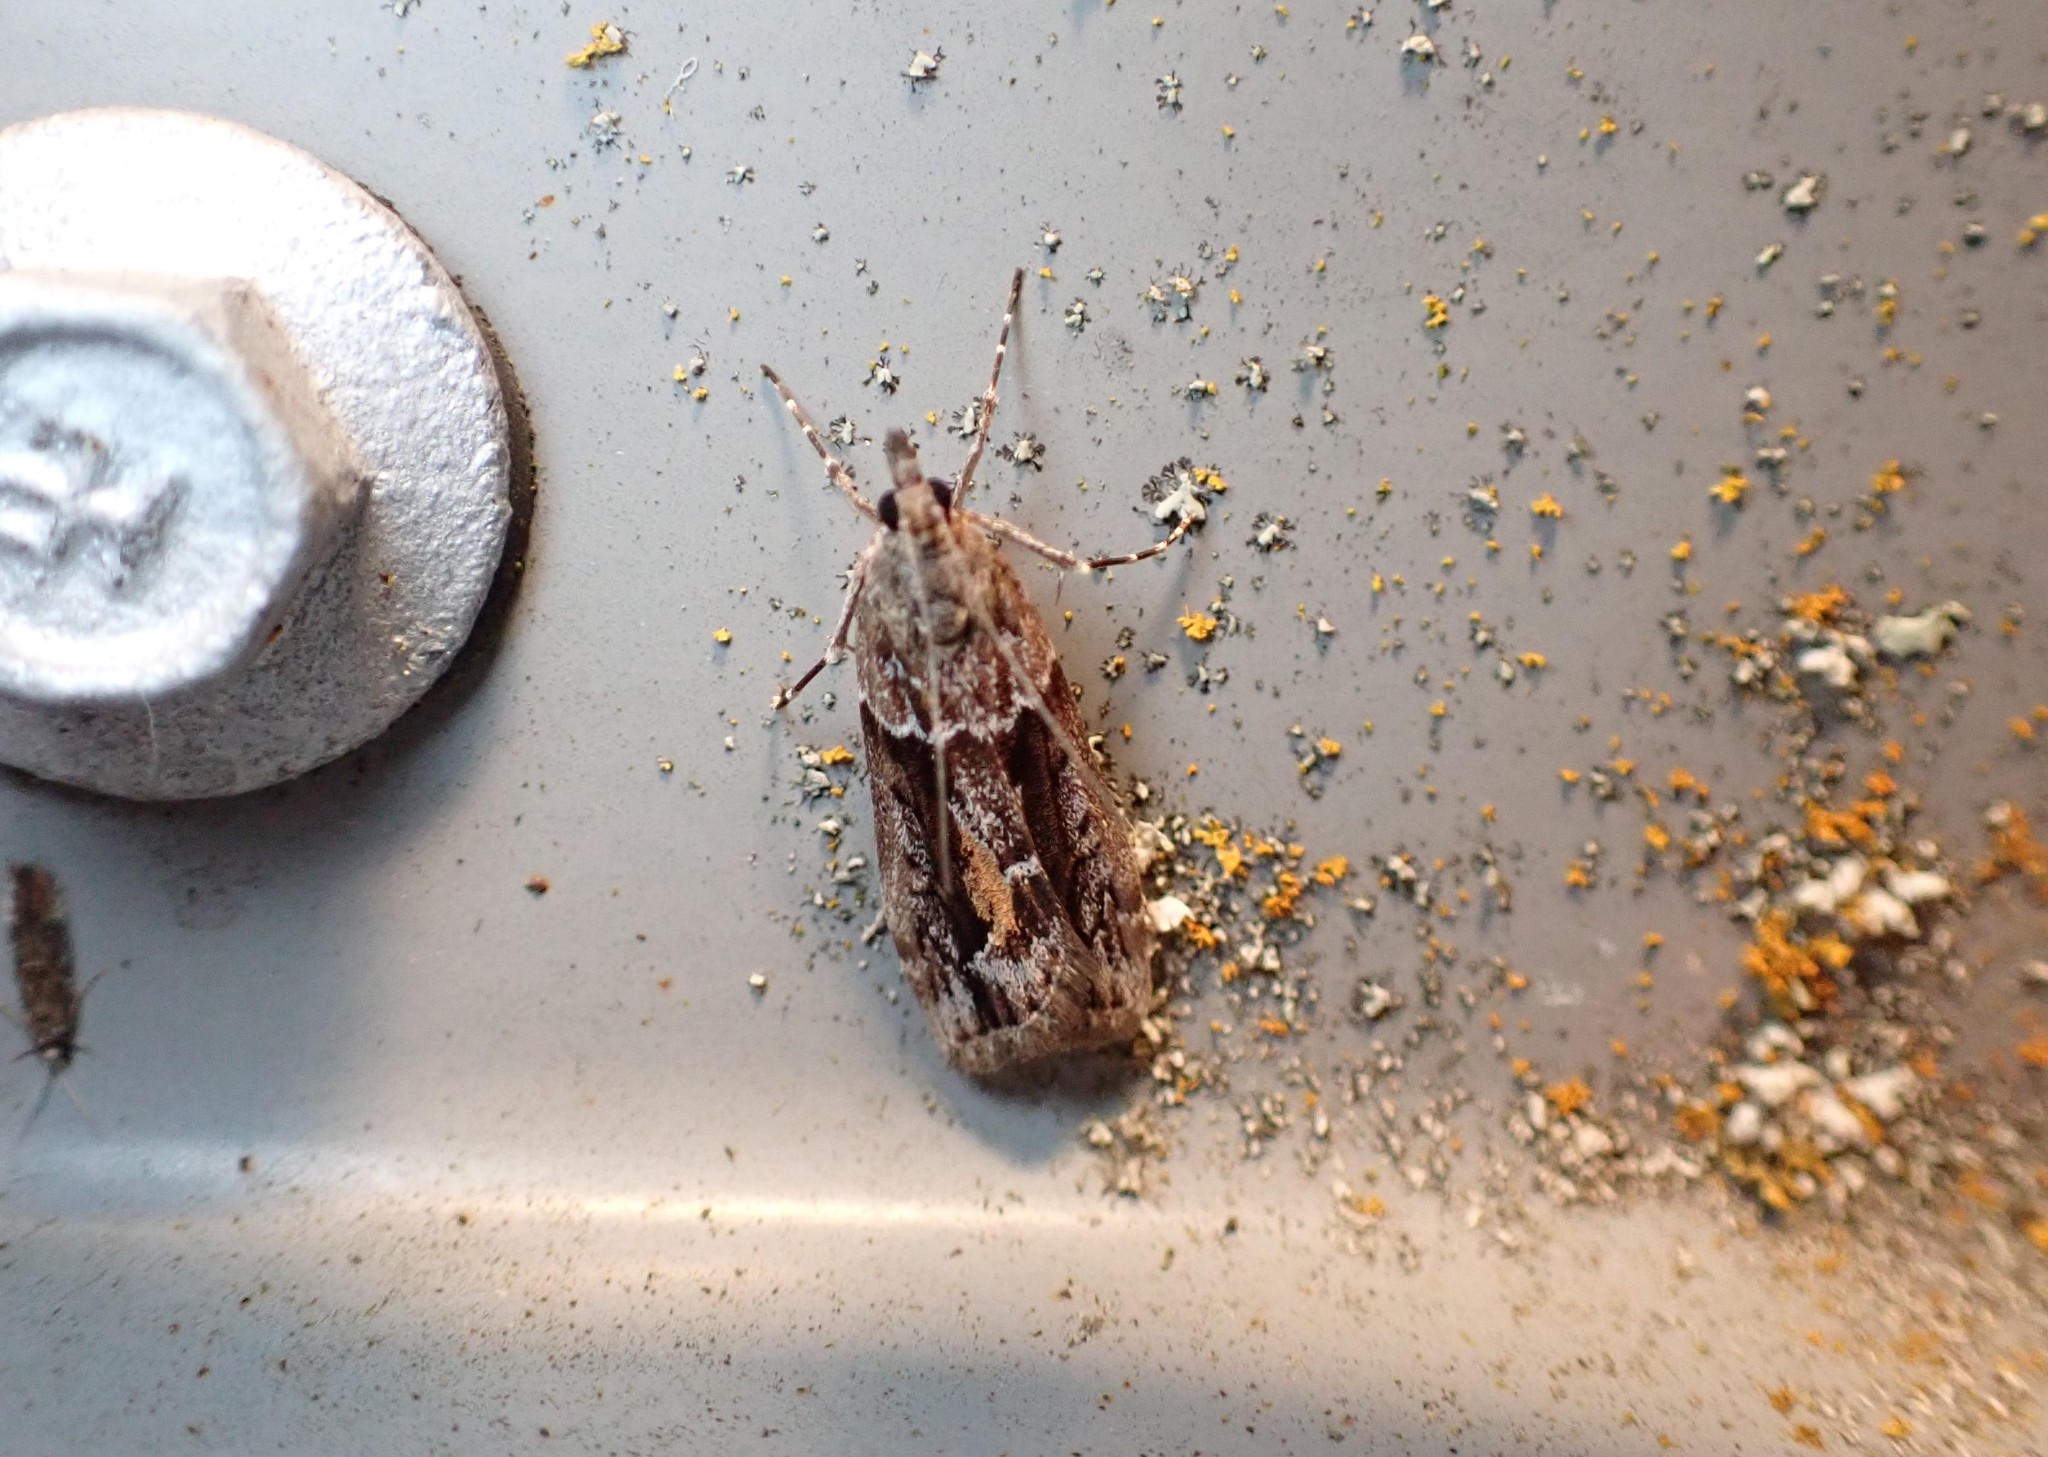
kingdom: Animalia
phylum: Arthropoda
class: Insecta
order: Lepidoptera
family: Crambidae
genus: Eudonia
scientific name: Eudonia submarginalis
